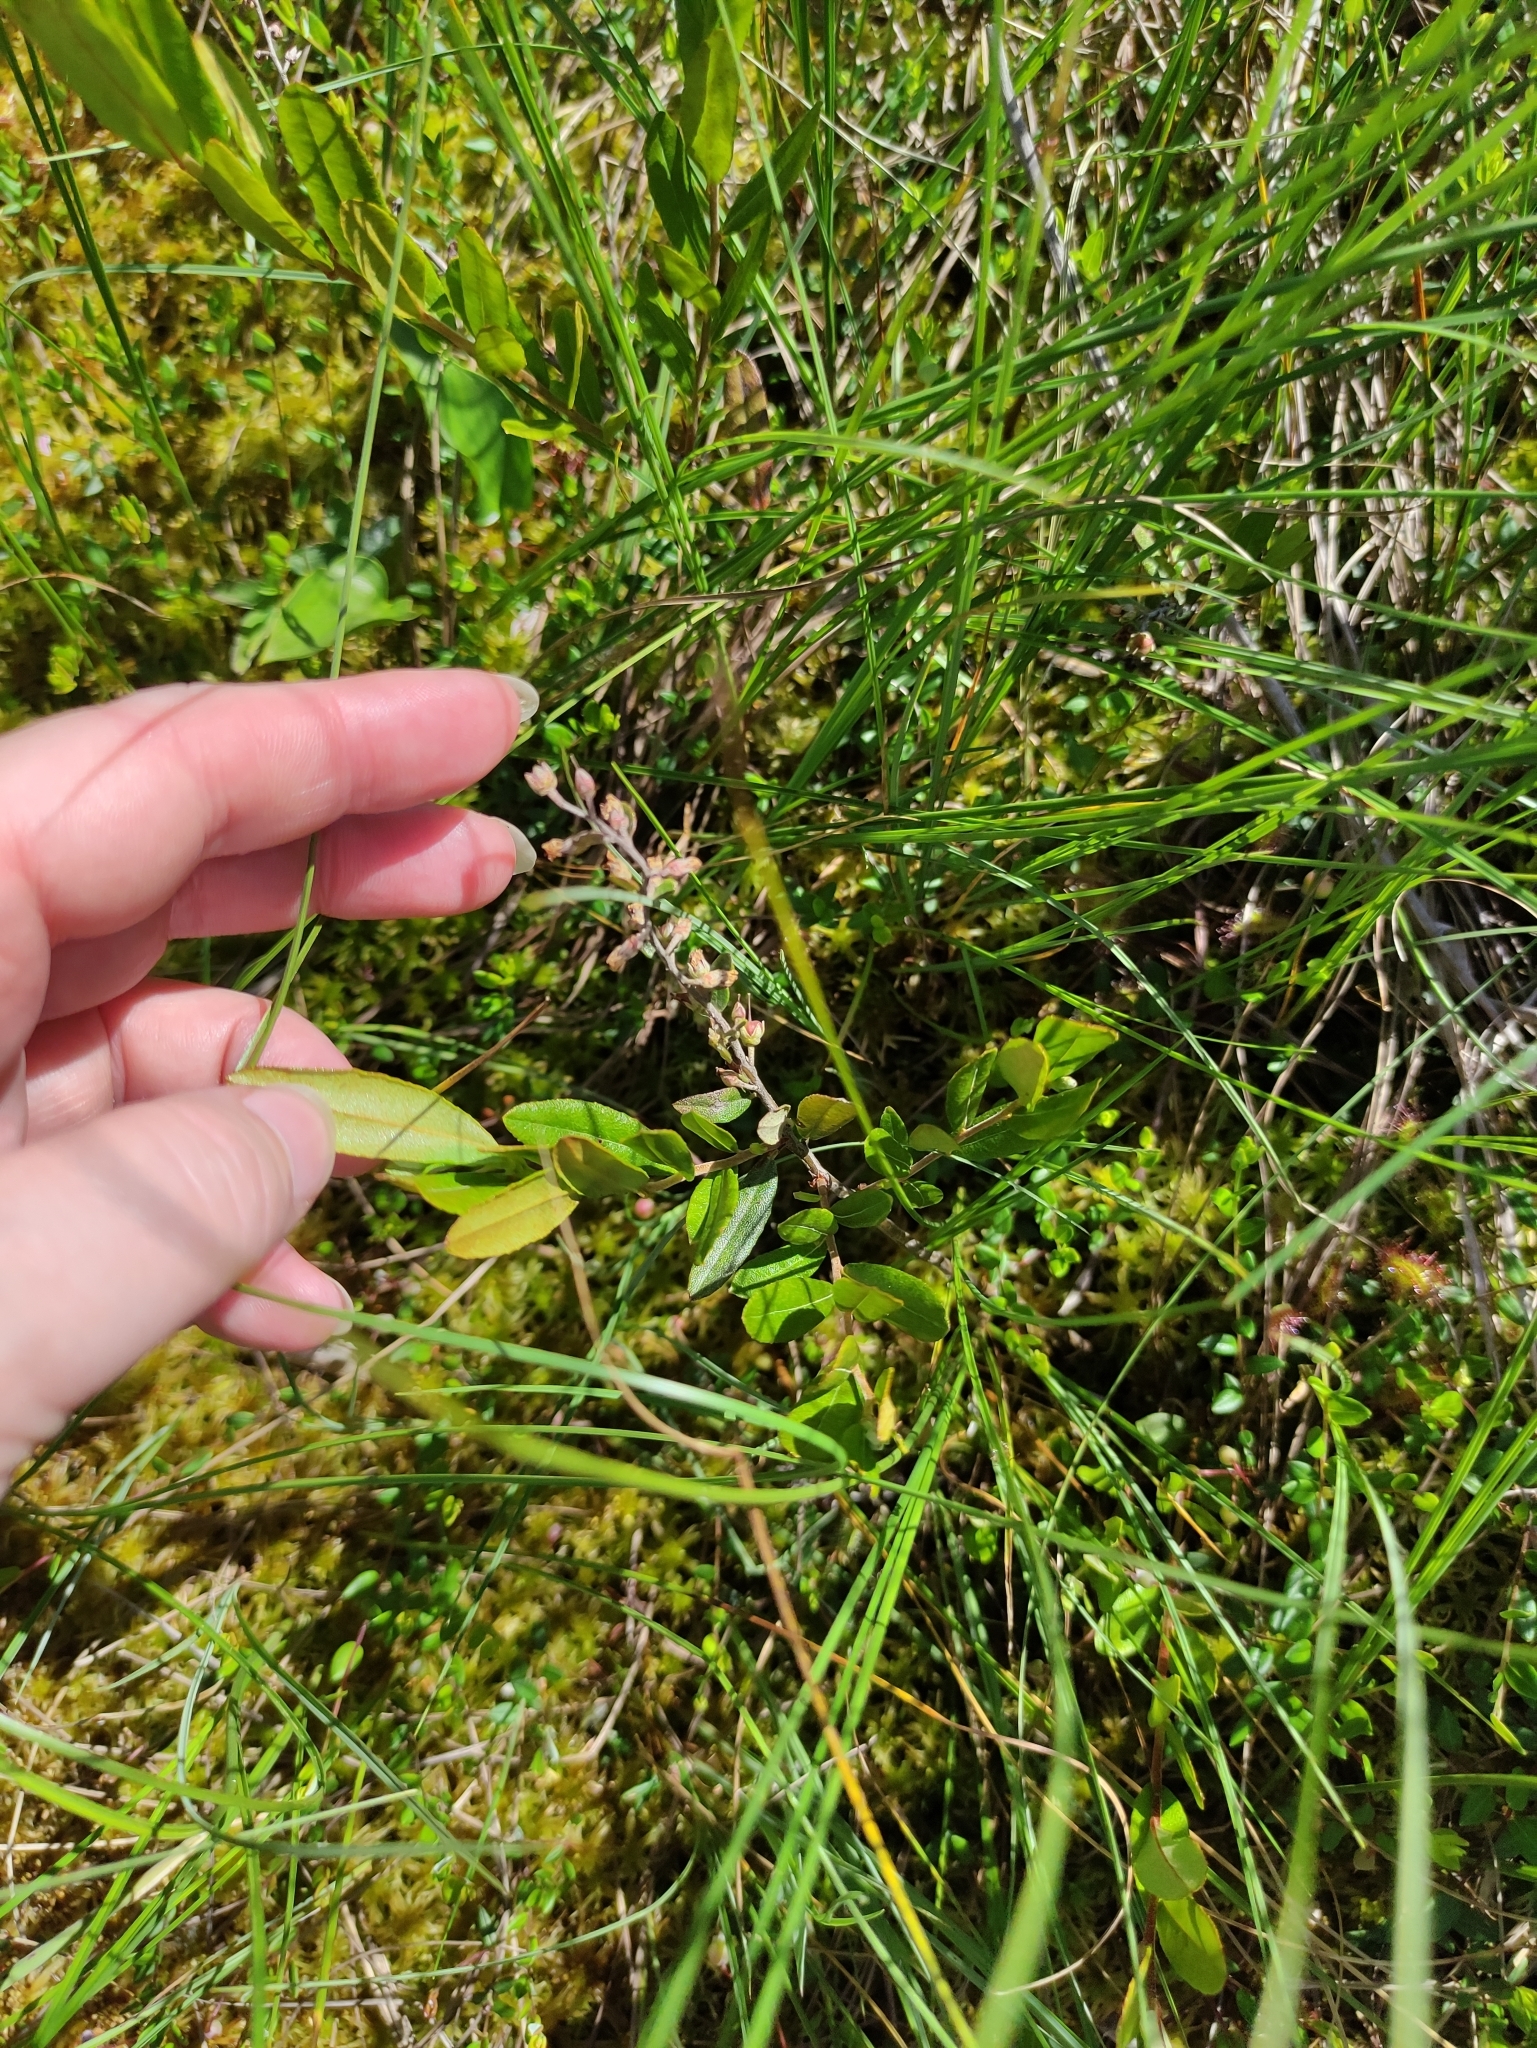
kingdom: Plantae
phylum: Tracheophyta
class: Magnoliopsida
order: Ericales
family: Ericaceae
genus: Chamaedaphne
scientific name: Chamaedaphne calyculata
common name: Leatherleaf
